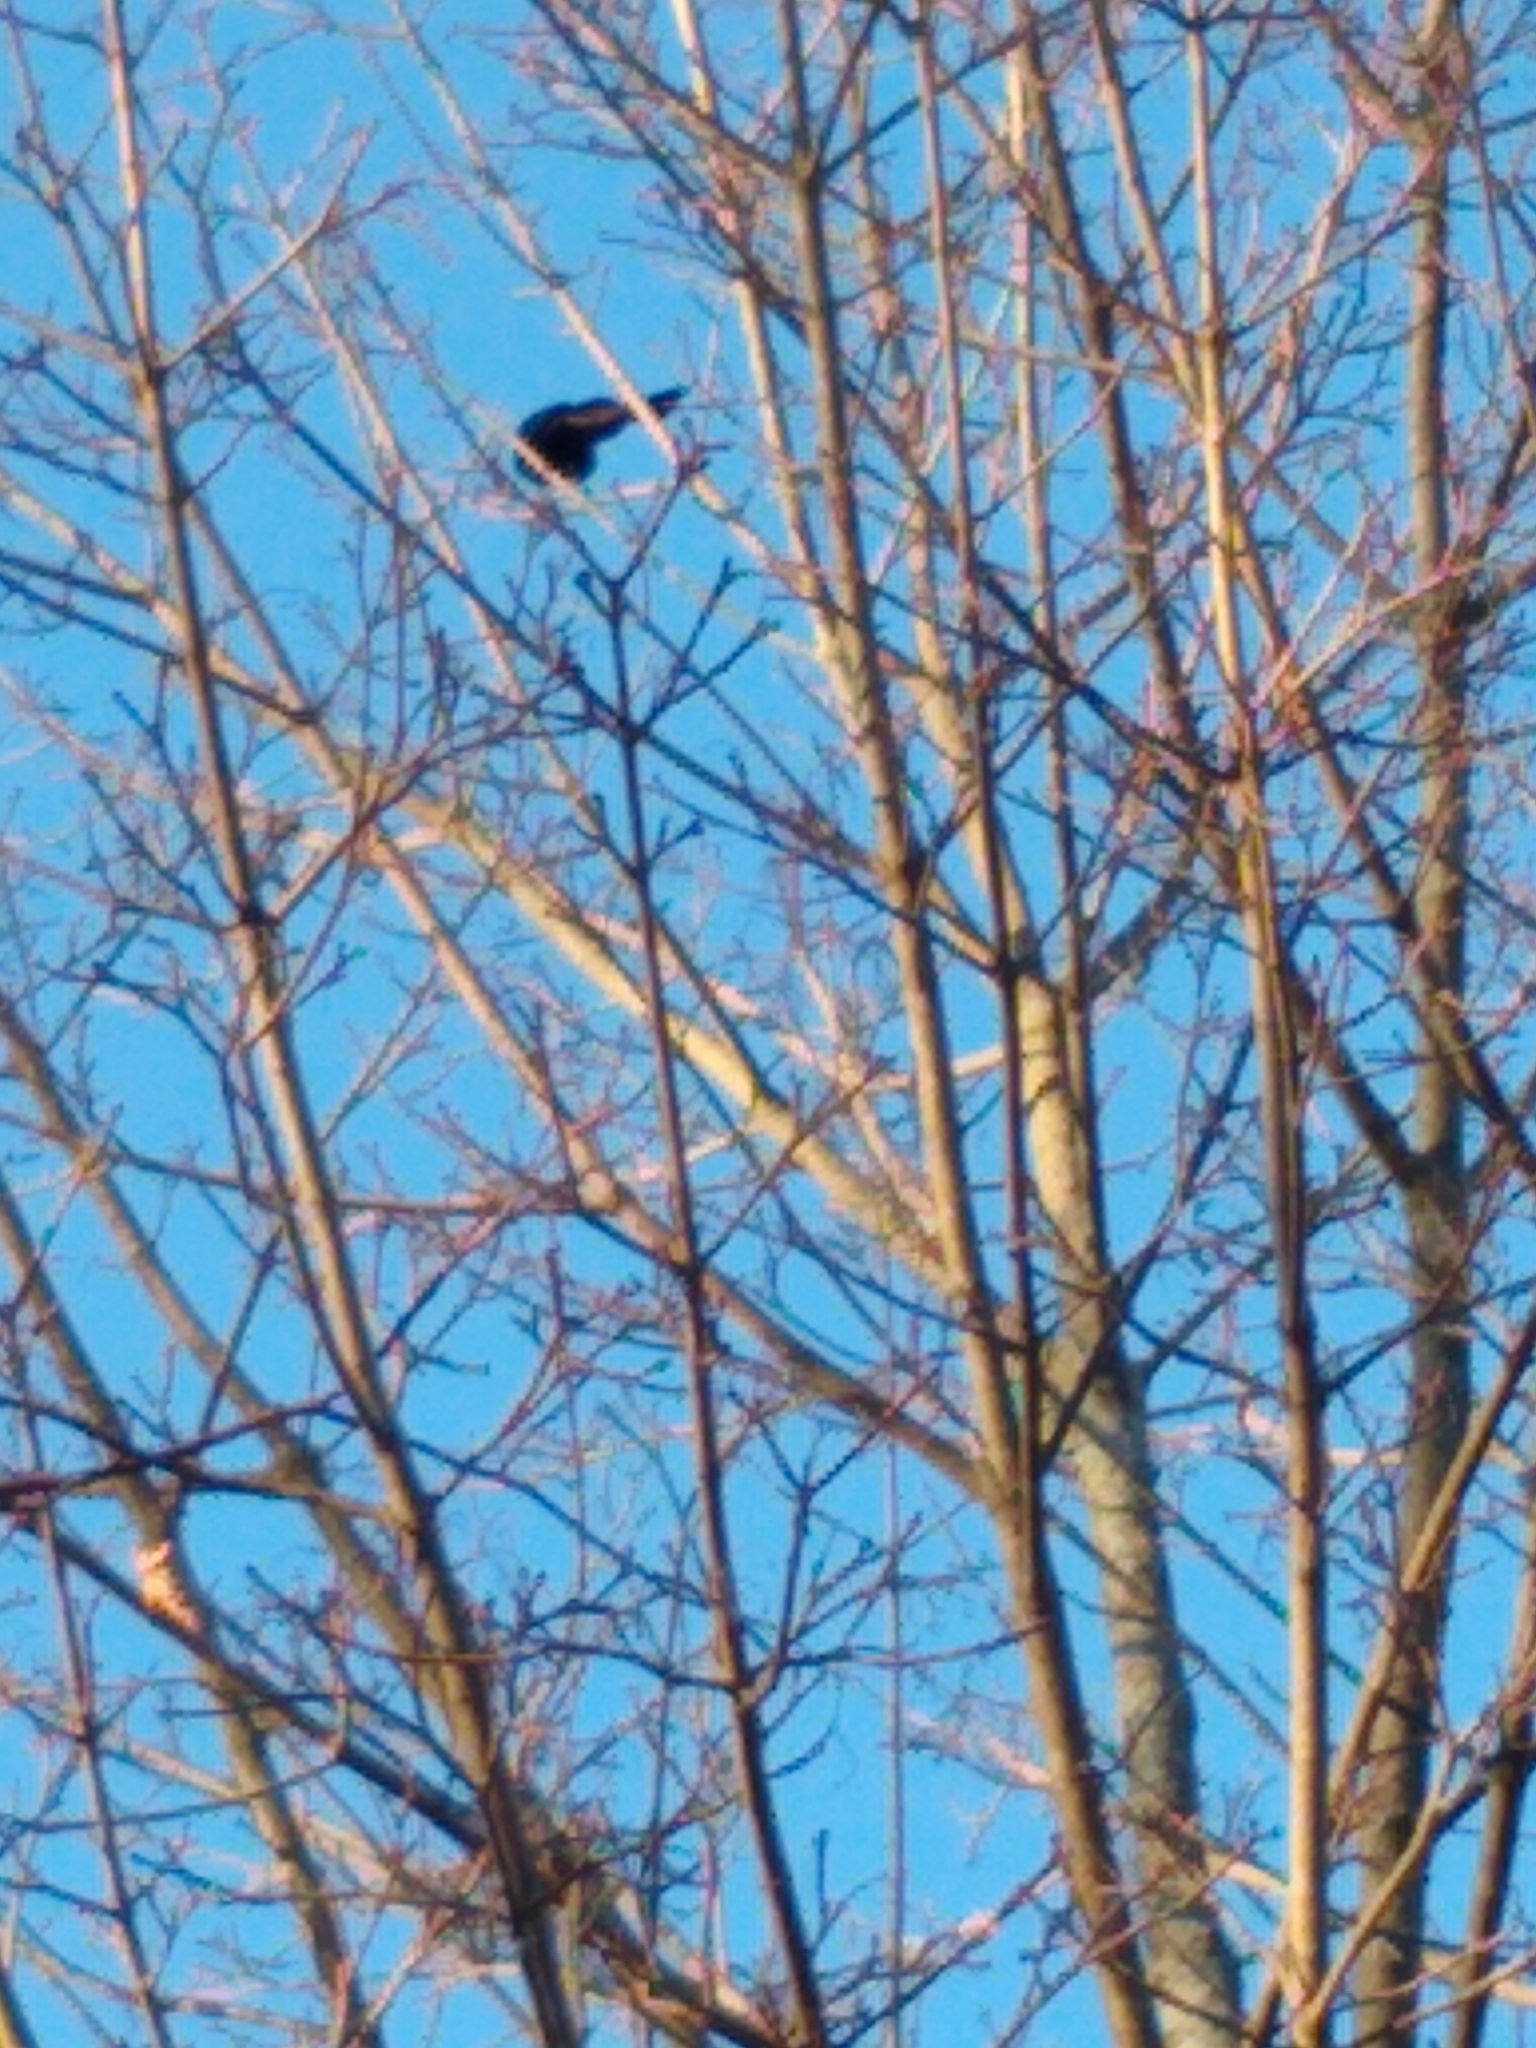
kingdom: Animalia
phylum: Chordata
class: Aves
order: Passeriformes
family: Icteridae
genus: Quiscalus
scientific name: Quiscalus quiscula
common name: Common grackle
